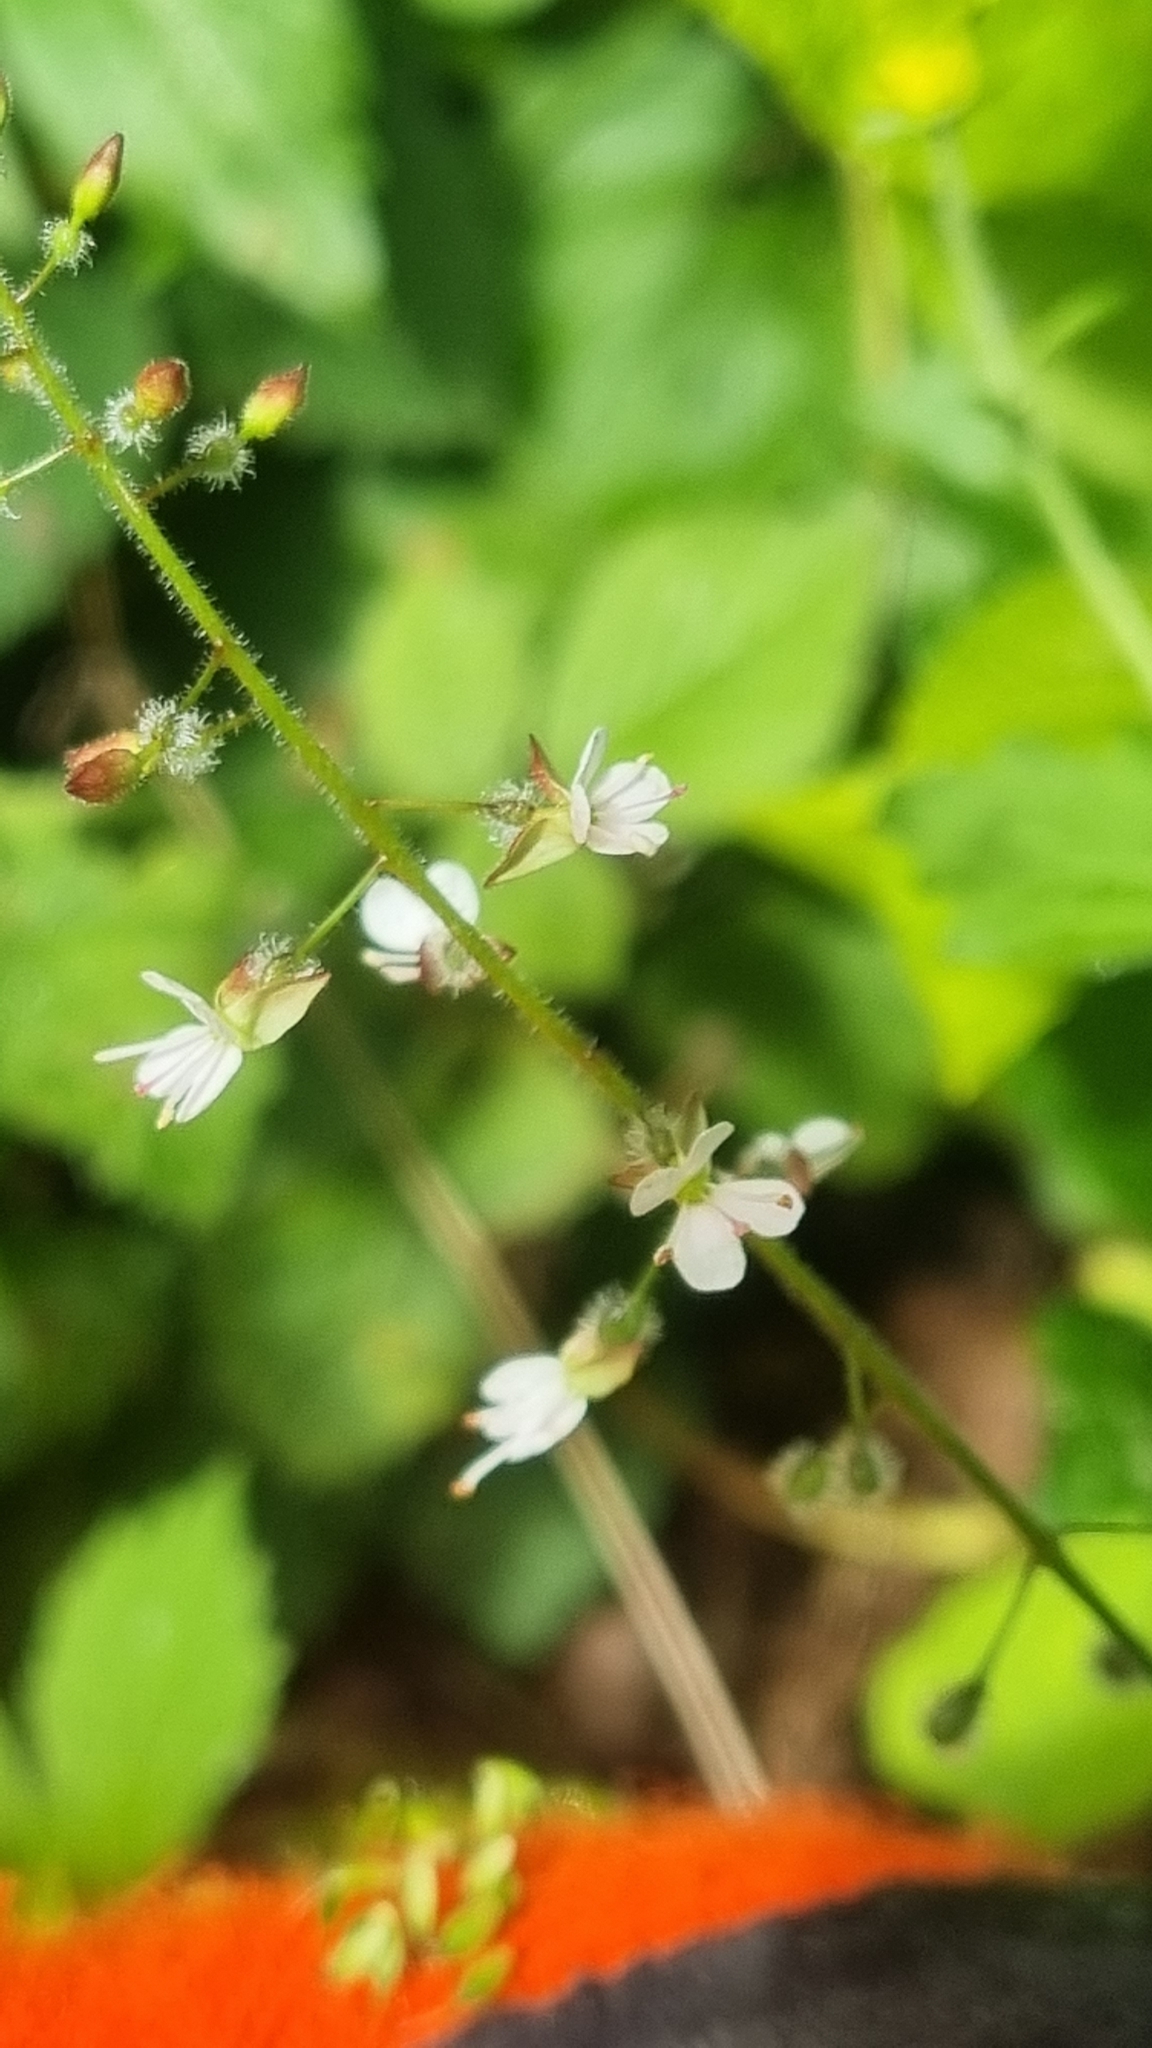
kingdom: Plantae
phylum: Tracheophyta
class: Magnoliopsida
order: Myrtales
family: Onagraceae
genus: Circaea
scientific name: Circaea lutetiana
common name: Enchanter's-nightshade
